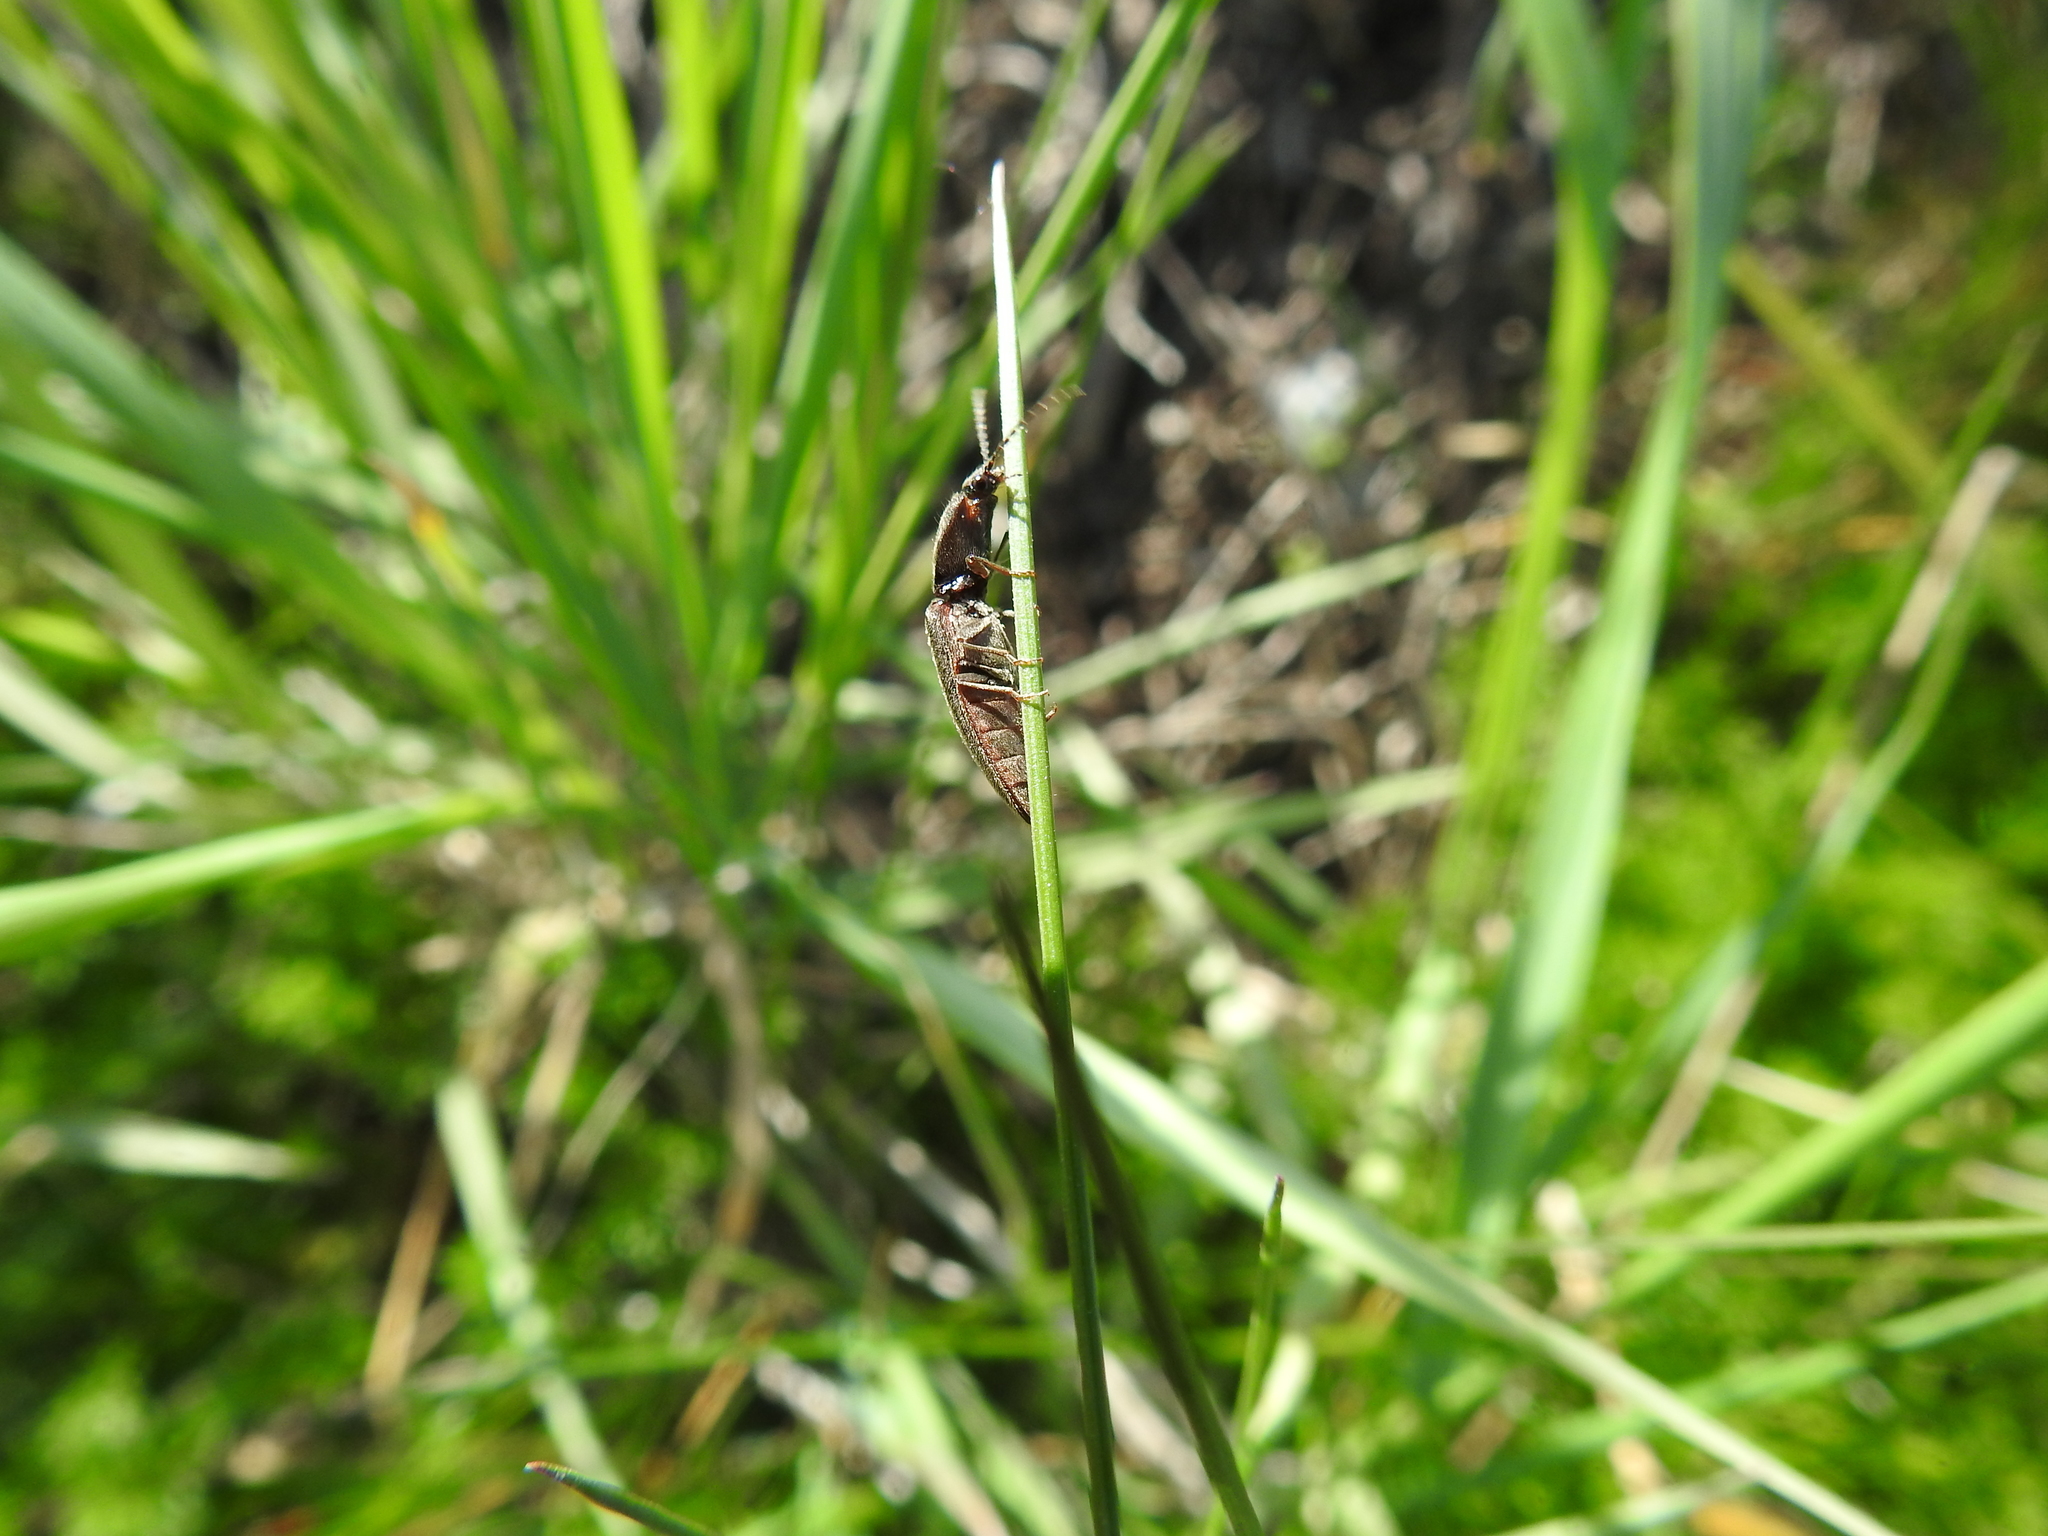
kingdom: Animalia
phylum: Arthropoda
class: Insecta
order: Coleoptera
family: Elateridae
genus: Athous
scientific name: Athous haemorrhoidalis
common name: Red-brown click beetle
